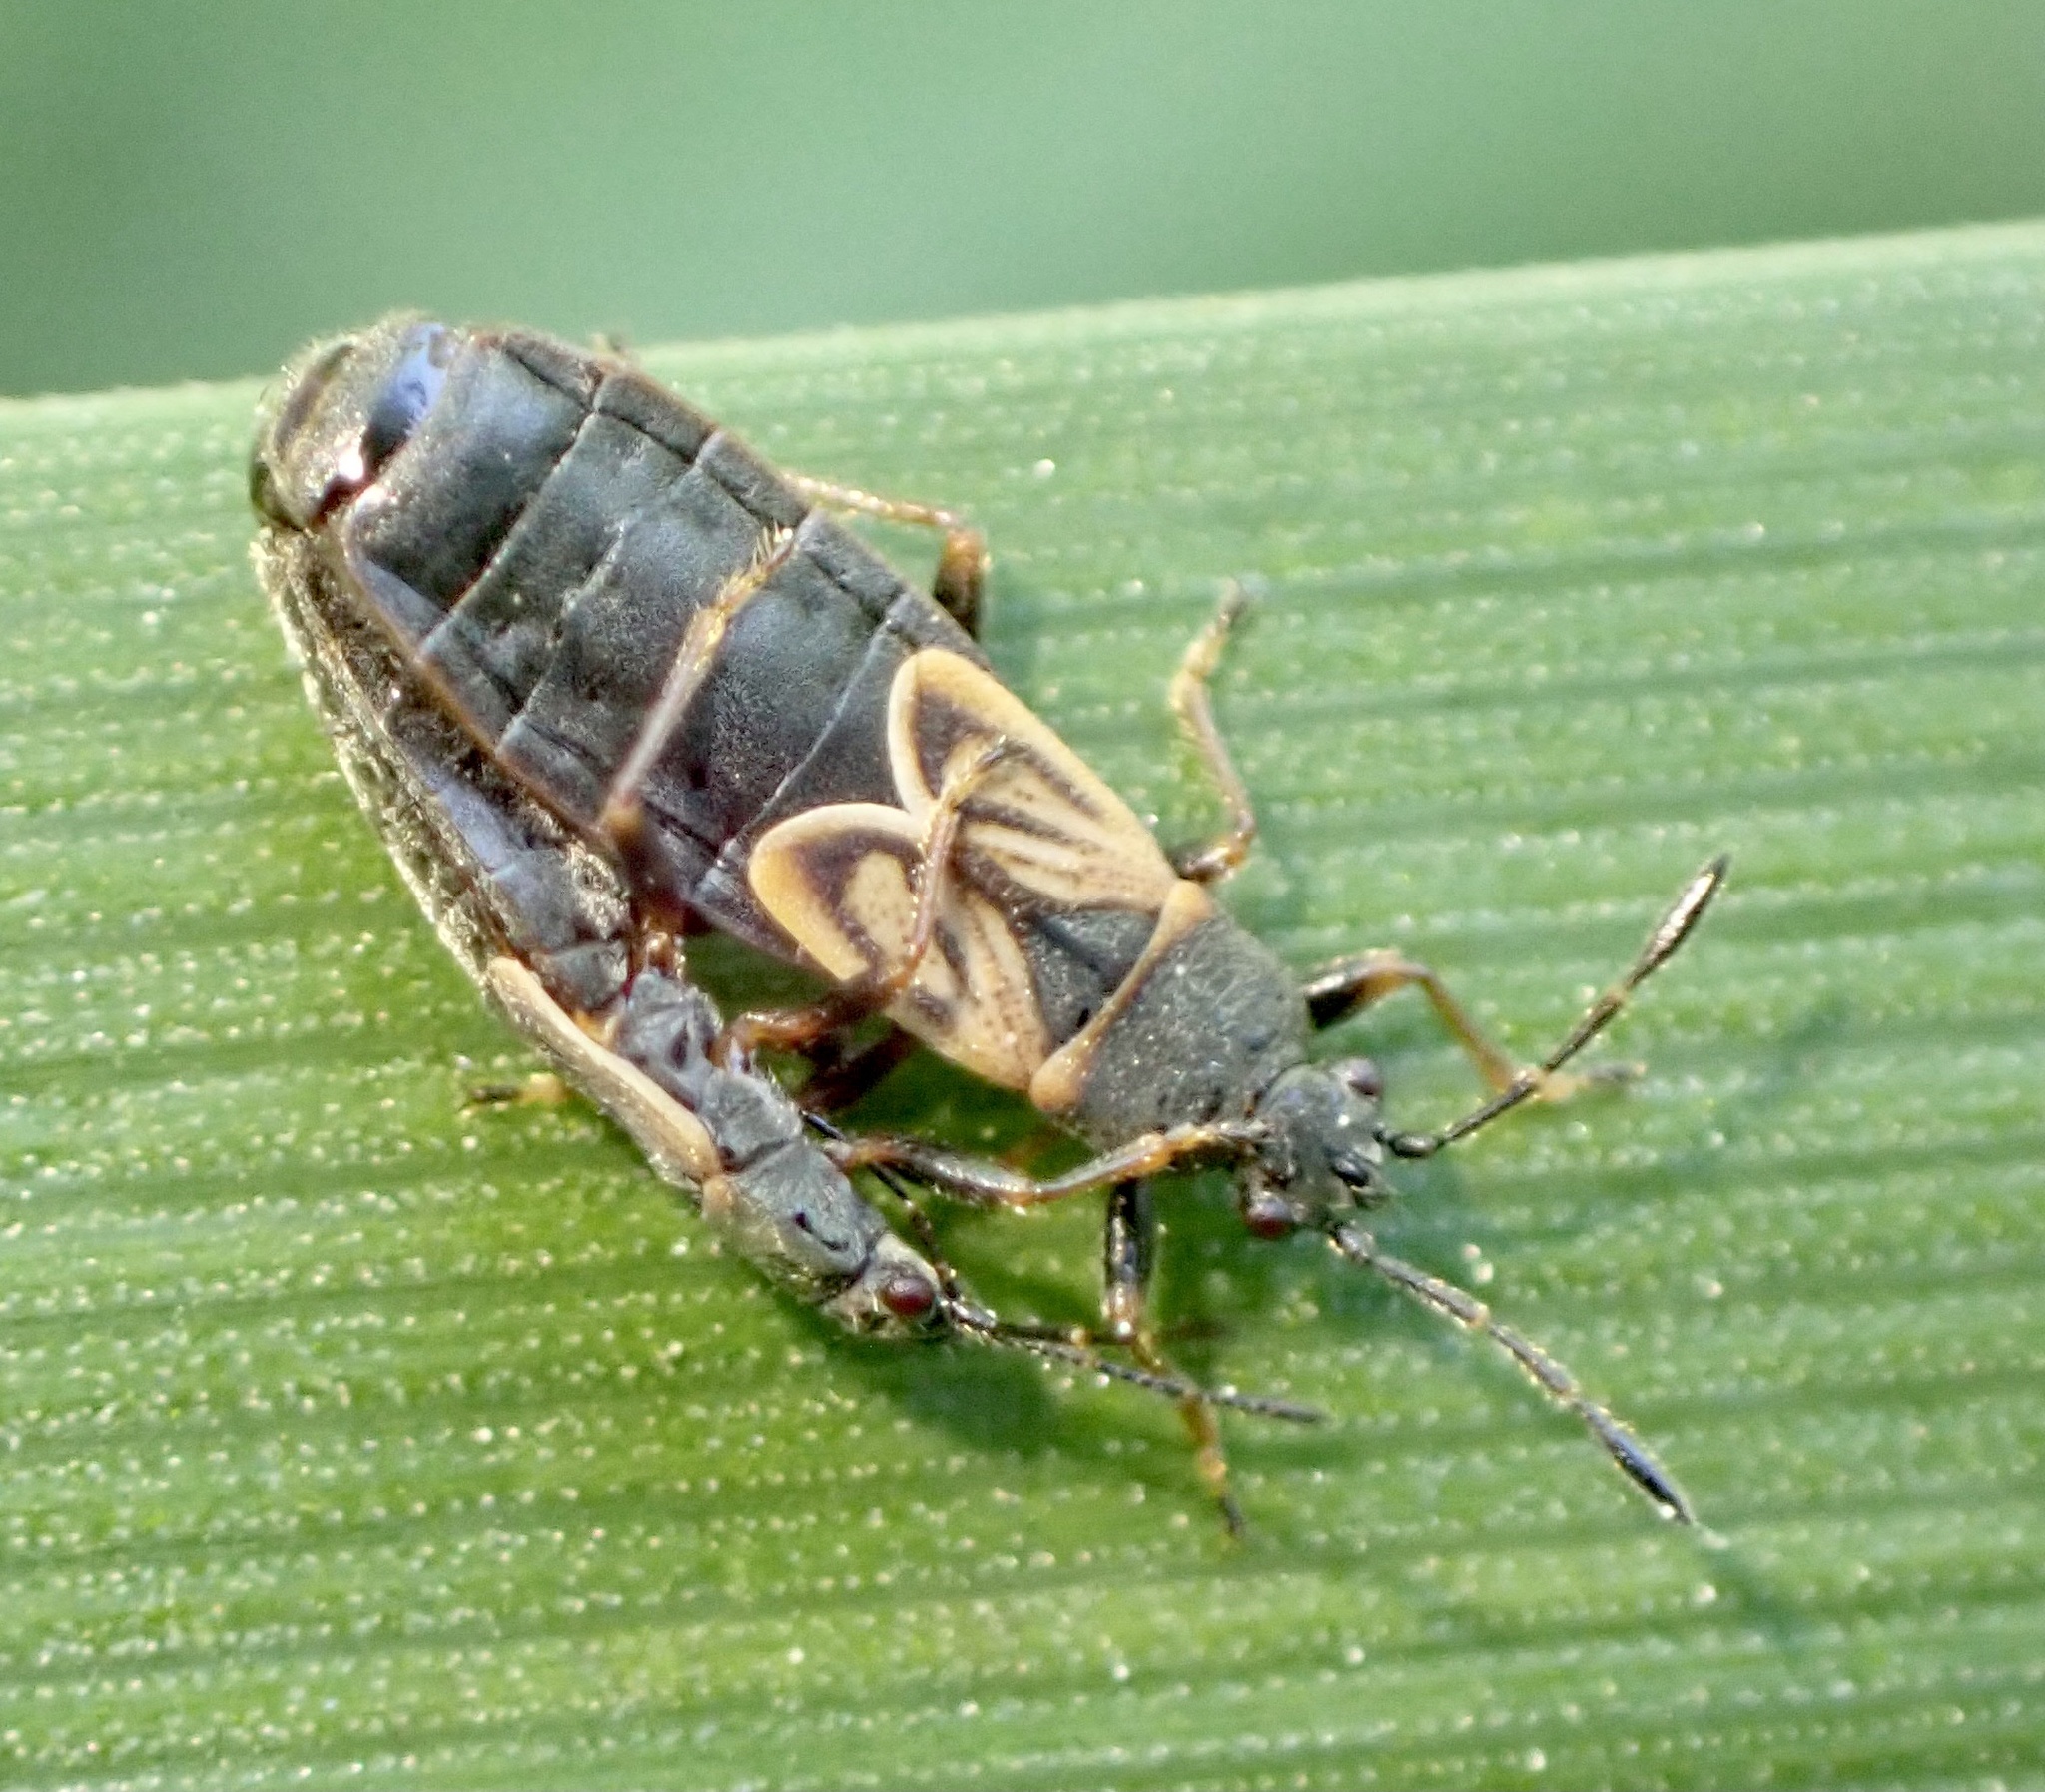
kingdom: Animalia
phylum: Arthropoda
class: Insecta
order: Hemiptera
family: Blissidae
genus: Ischnodemus
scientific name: Ischnodemus sabuleti
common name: European cinchbug
